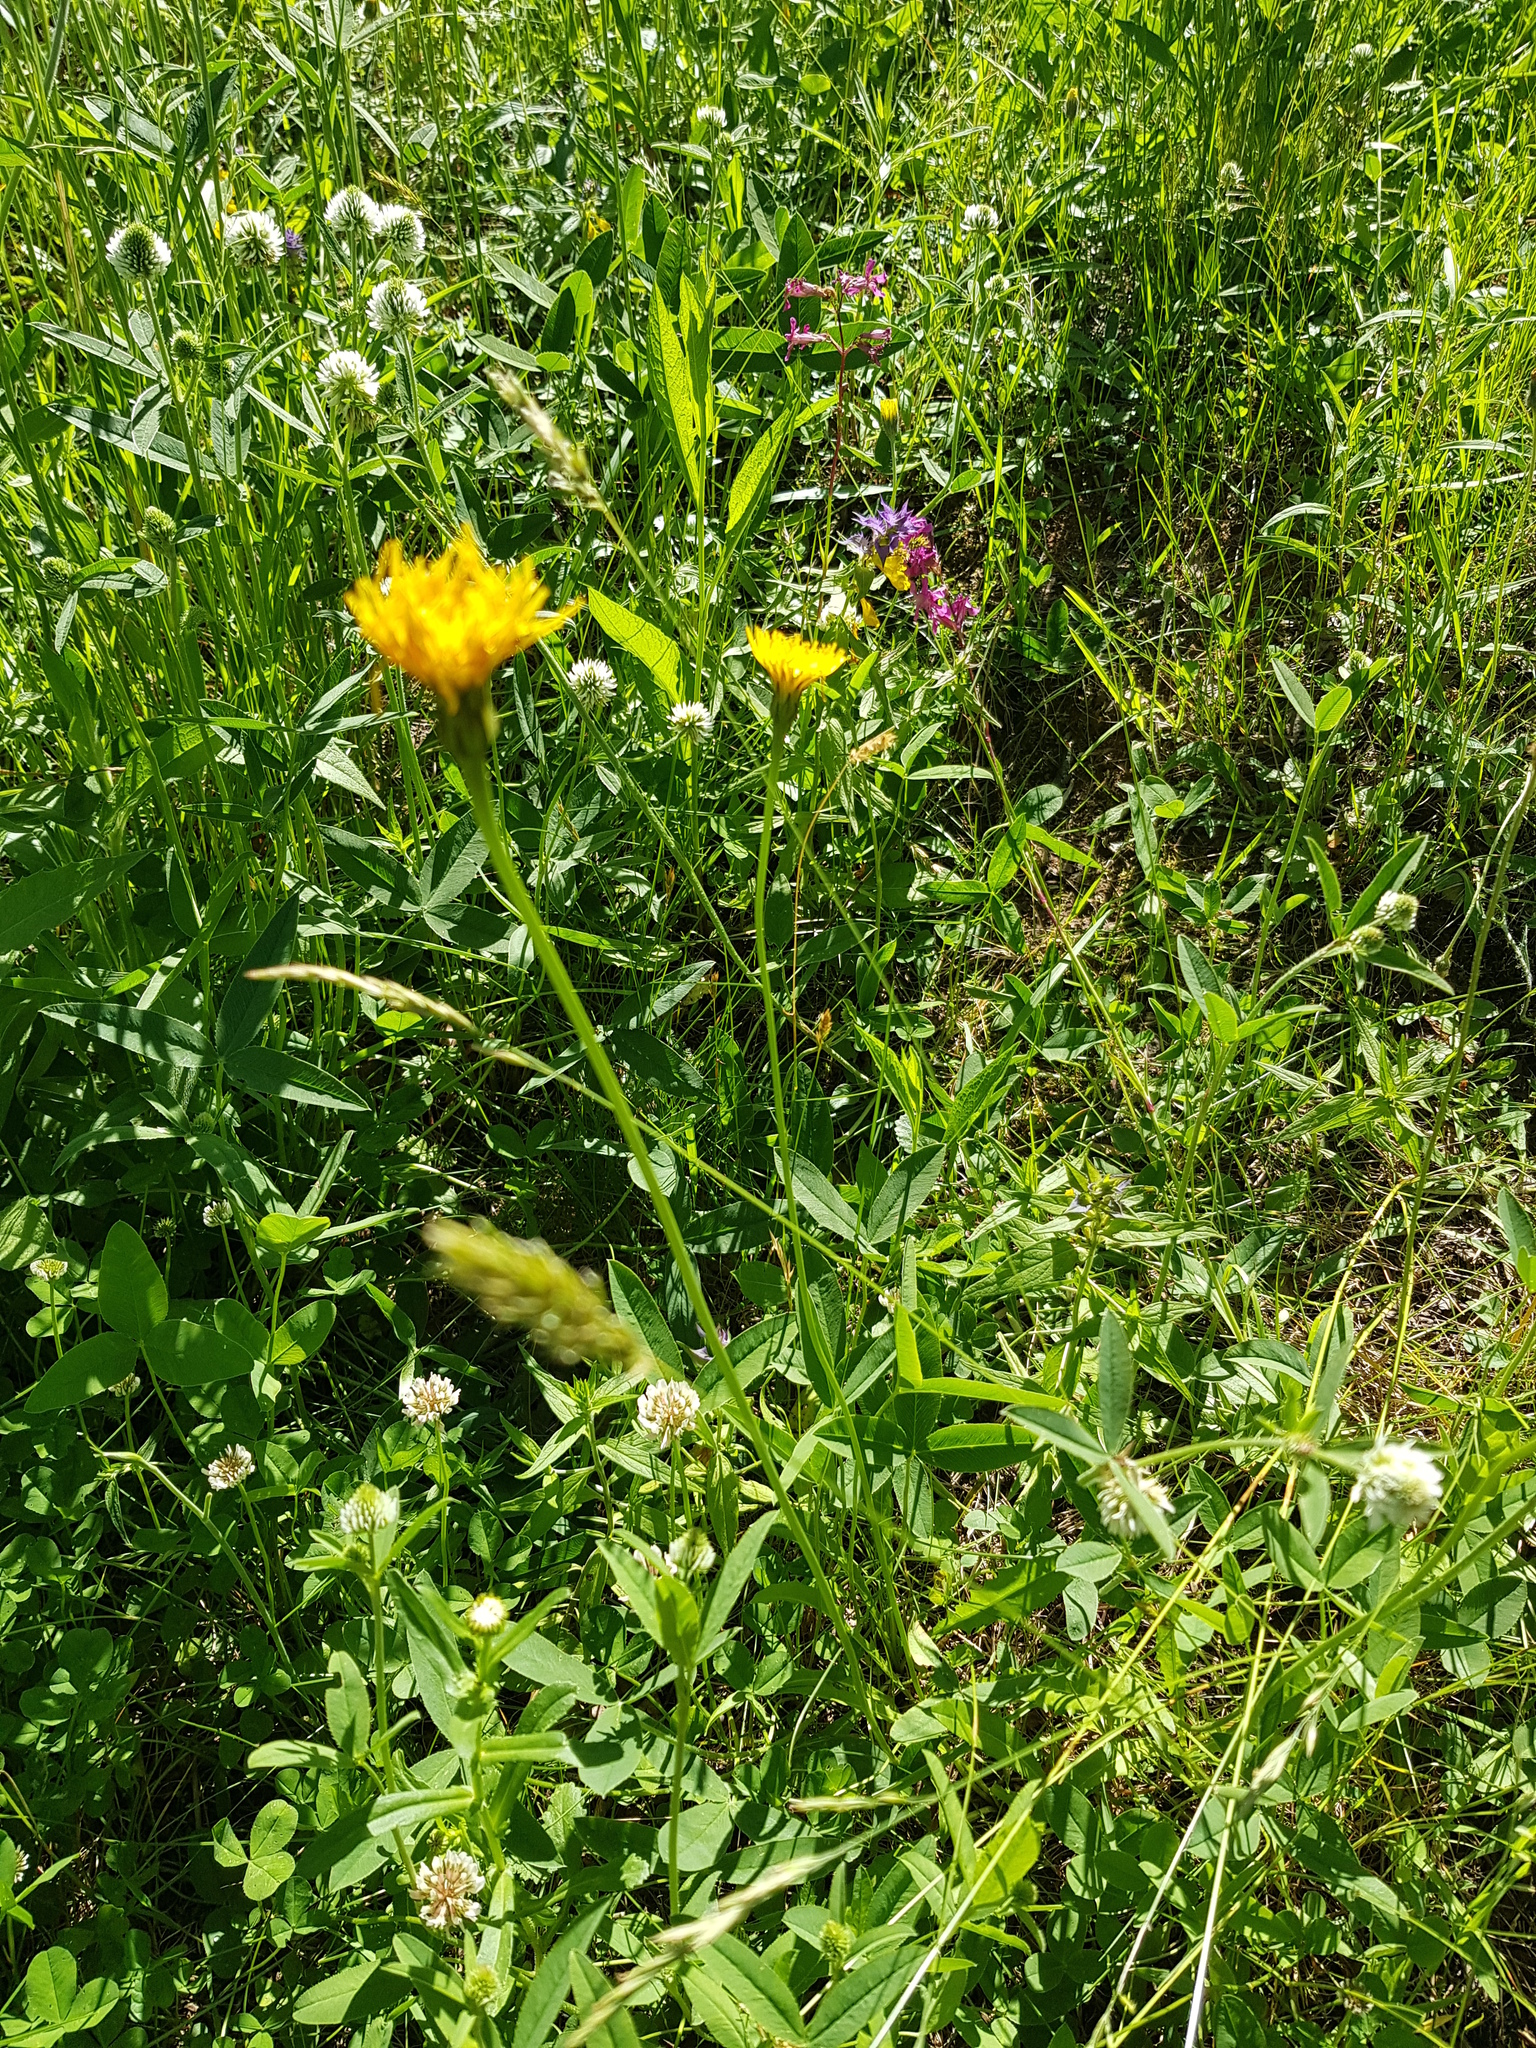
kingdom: Plantae
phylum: Tracheophyta
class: Magnoliopsida
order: Asterales
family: Asteraceae
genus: Leontodon
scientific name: Leontodon hispidus
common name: Rough hawkbit
